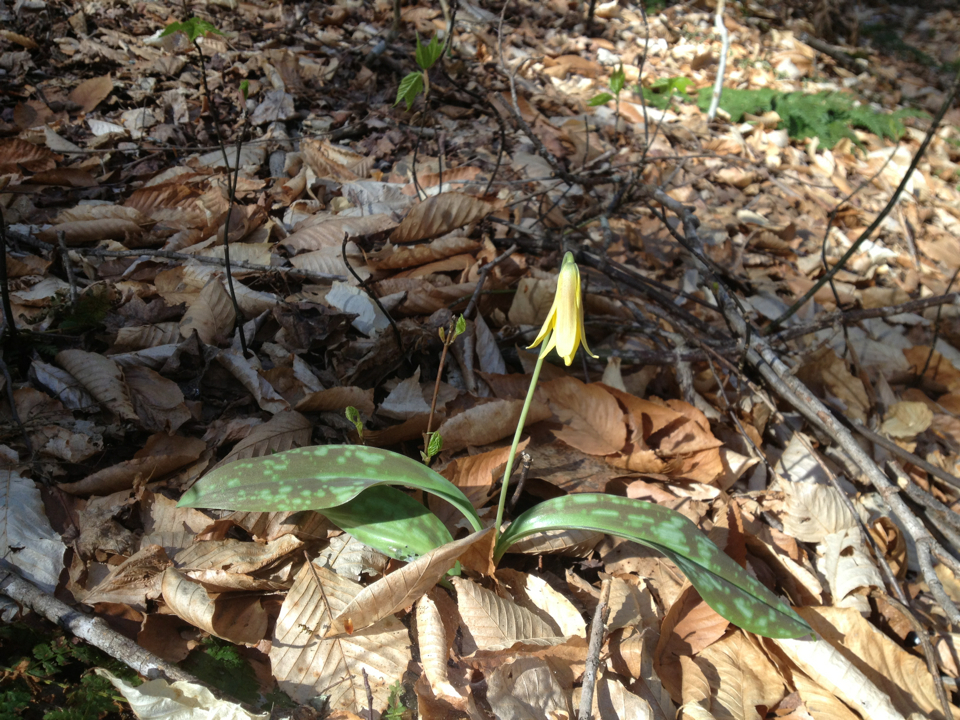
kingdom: Plantae
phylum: Tracheophyta
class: Liliopsida
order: Liliales
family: Liliaceae
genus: Erythronium
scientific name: Erythronium americanum
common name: Yellow adder's-tongue
